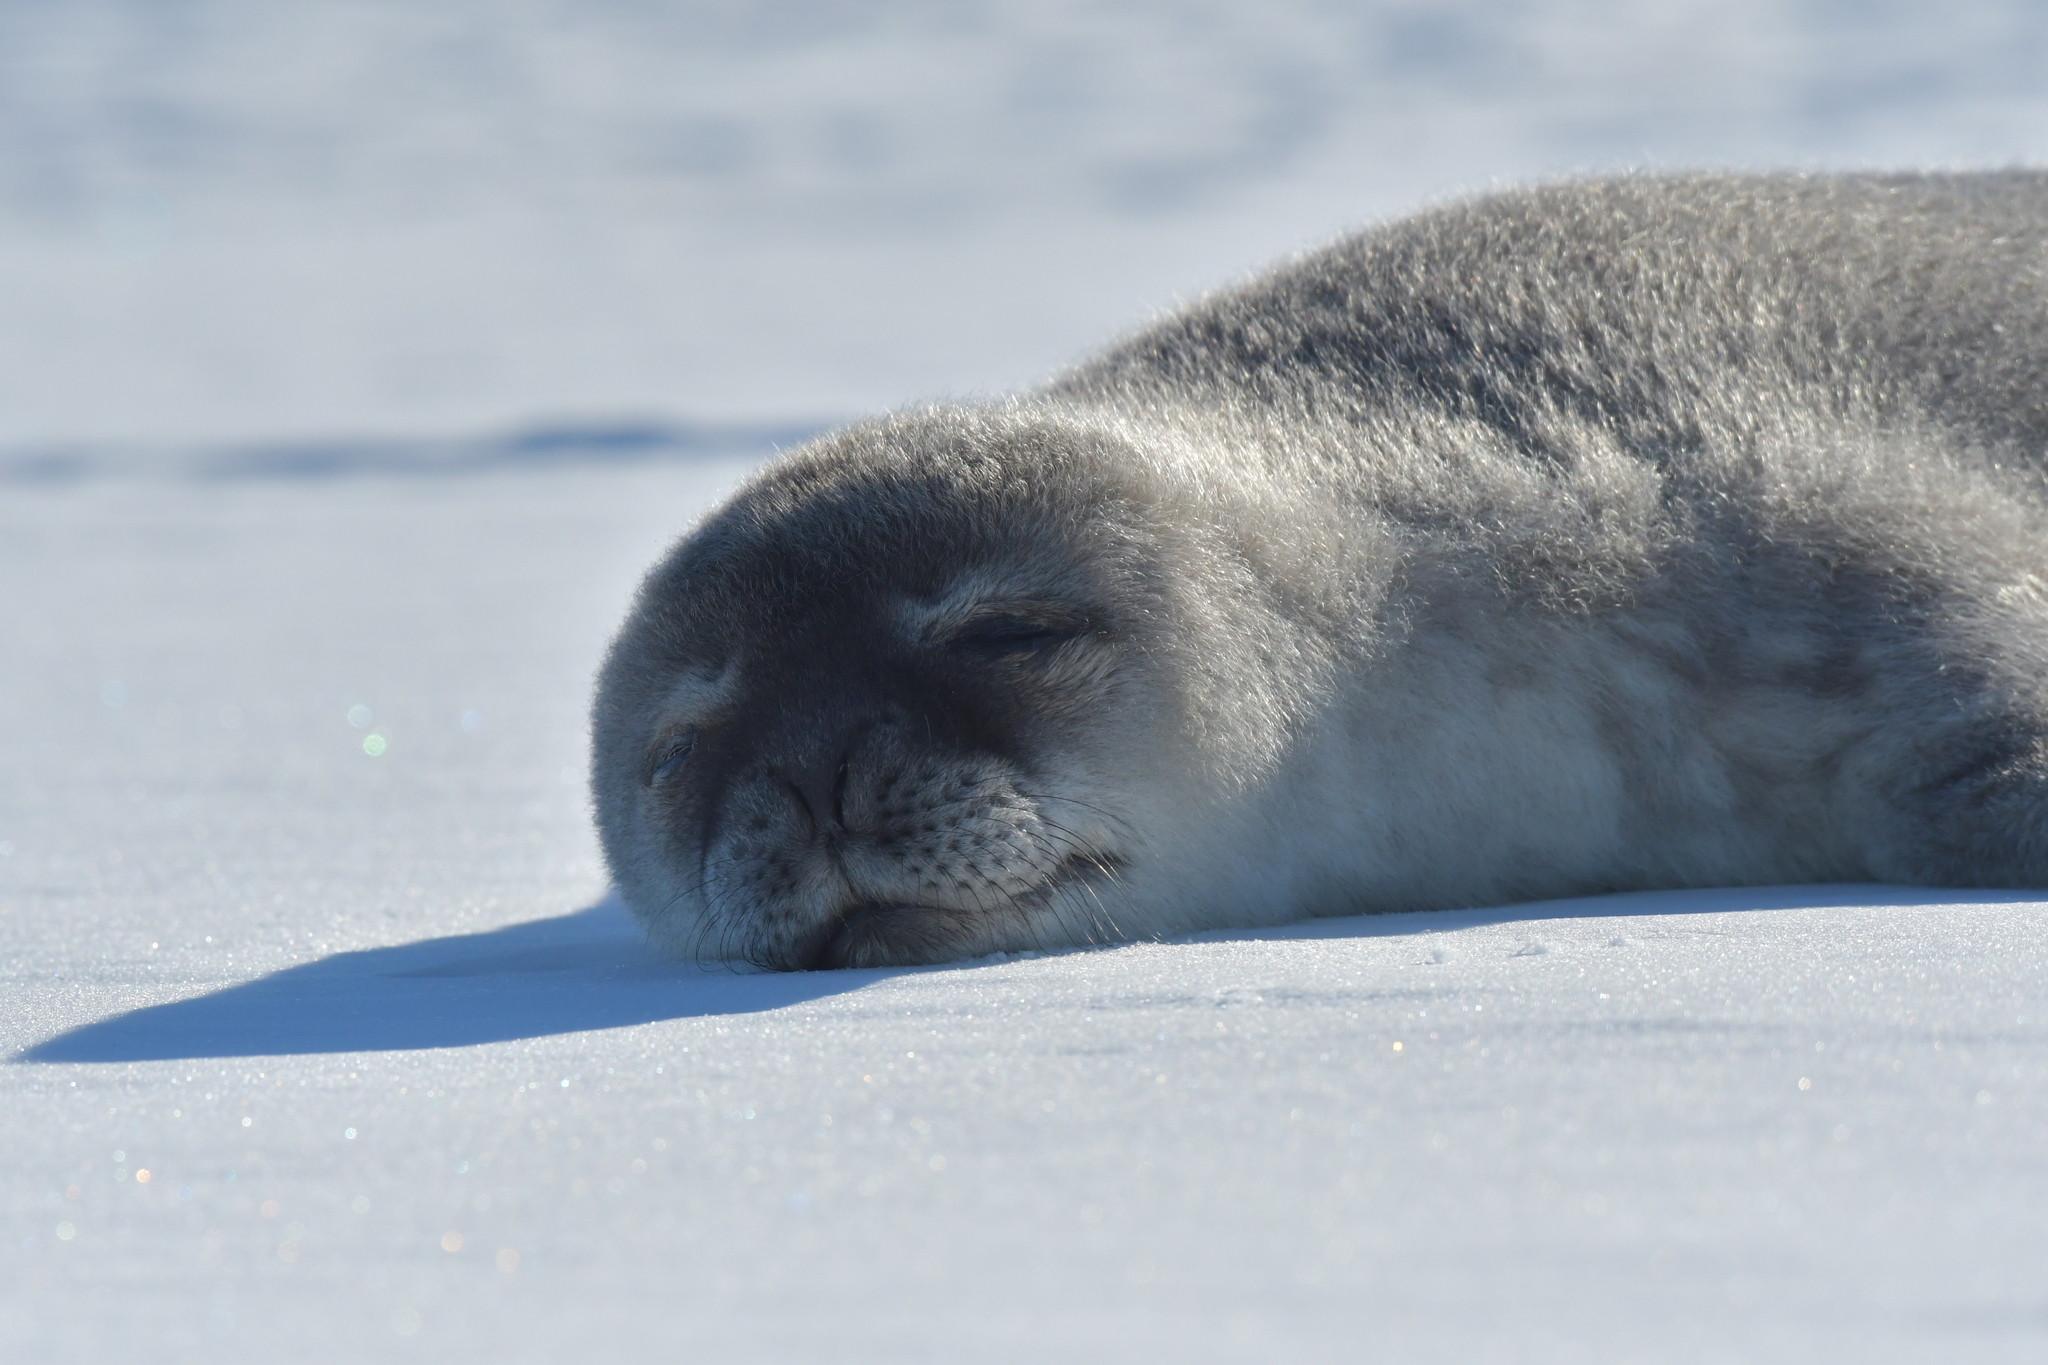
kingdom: Animalia
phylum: Chordata
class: Mammalia
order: Carnivora
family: Phocidae
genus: Leptonychotes
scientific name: Leptonychotes weddellii
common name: Weddell seal
